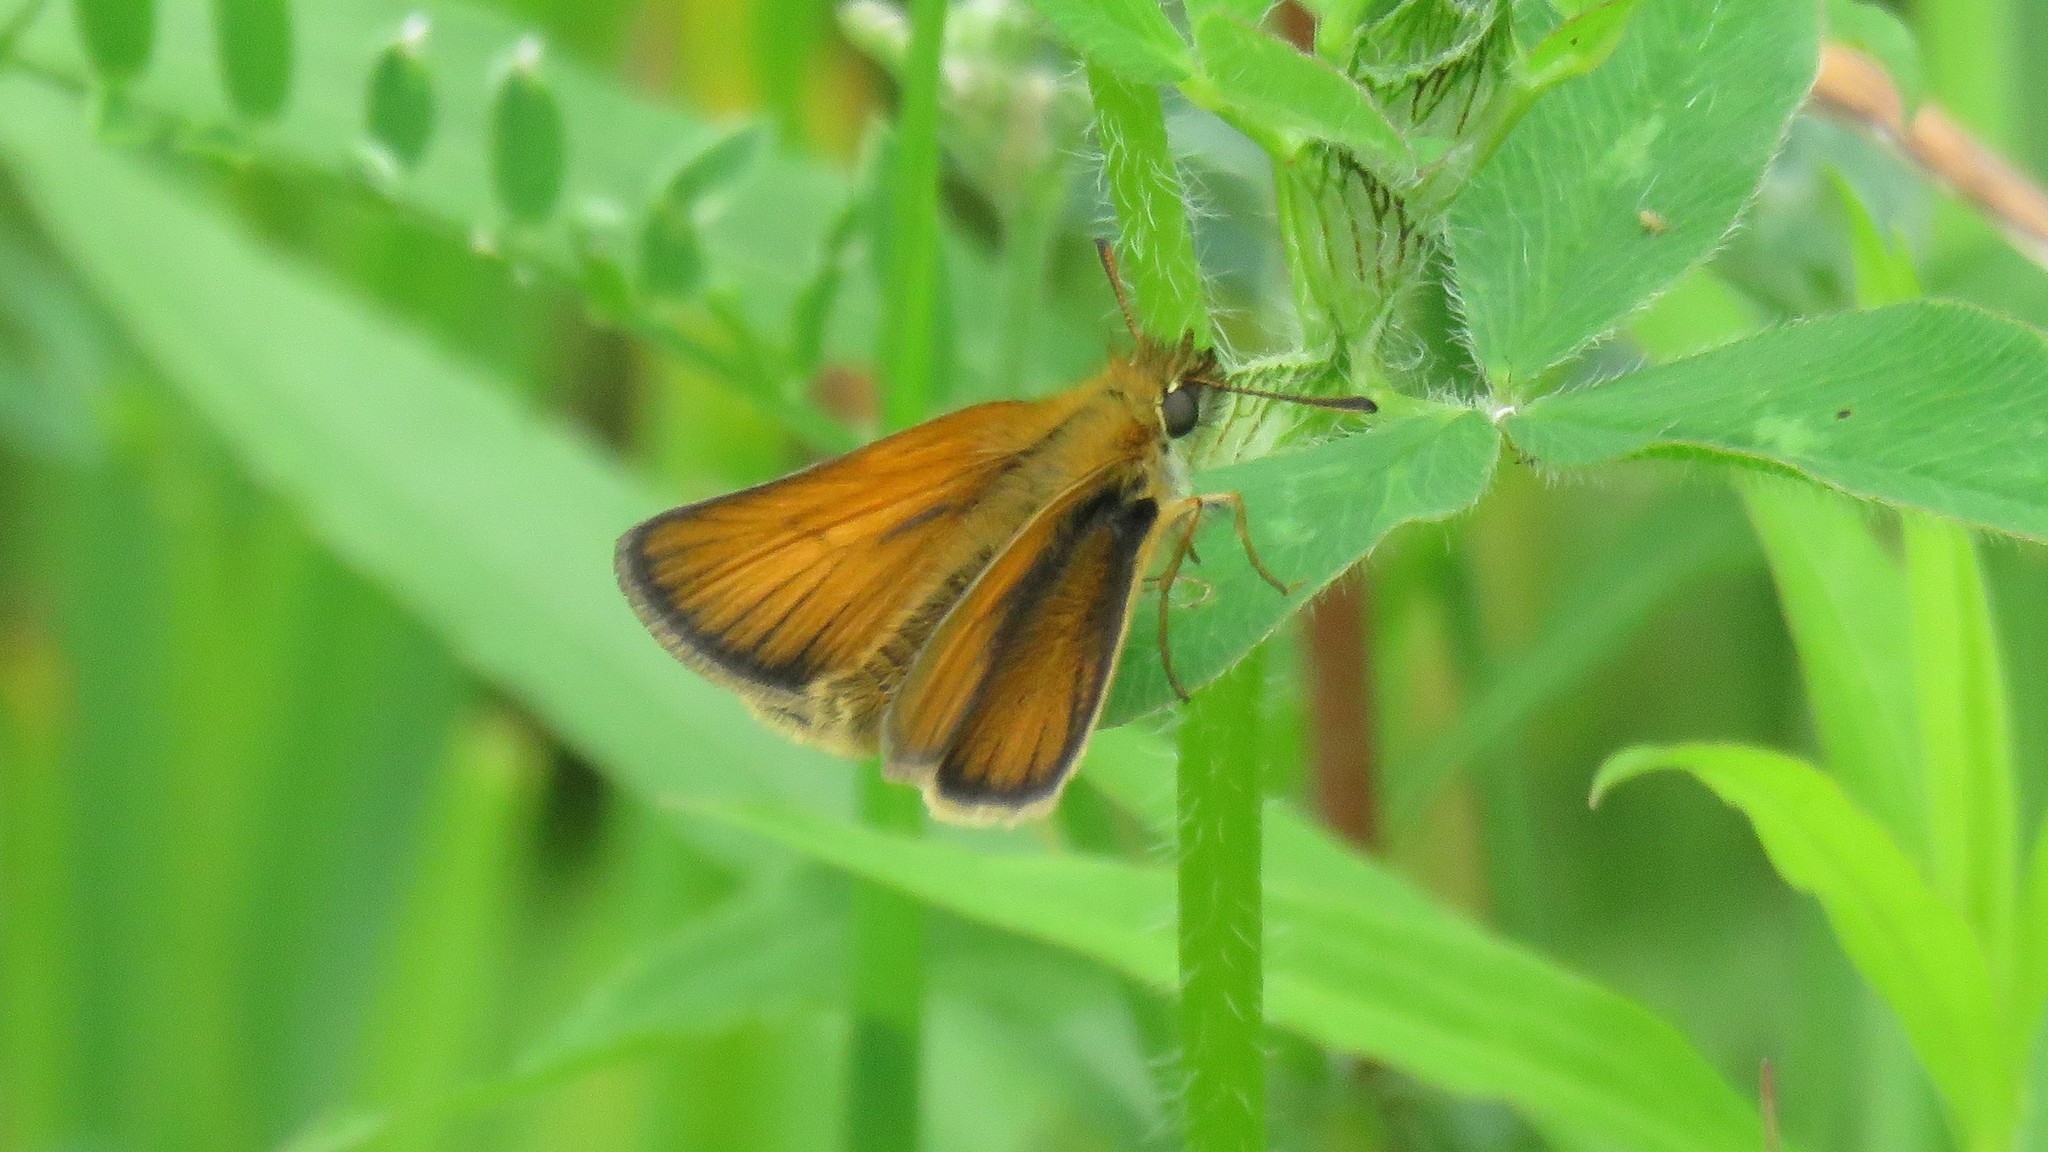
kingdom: Animalia
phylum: Arthropoda
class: Insecta
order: Lepidoptera
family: Hesperiidae
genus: Thymelicus
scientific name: Thymelicus lineola
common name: Essex skipper
